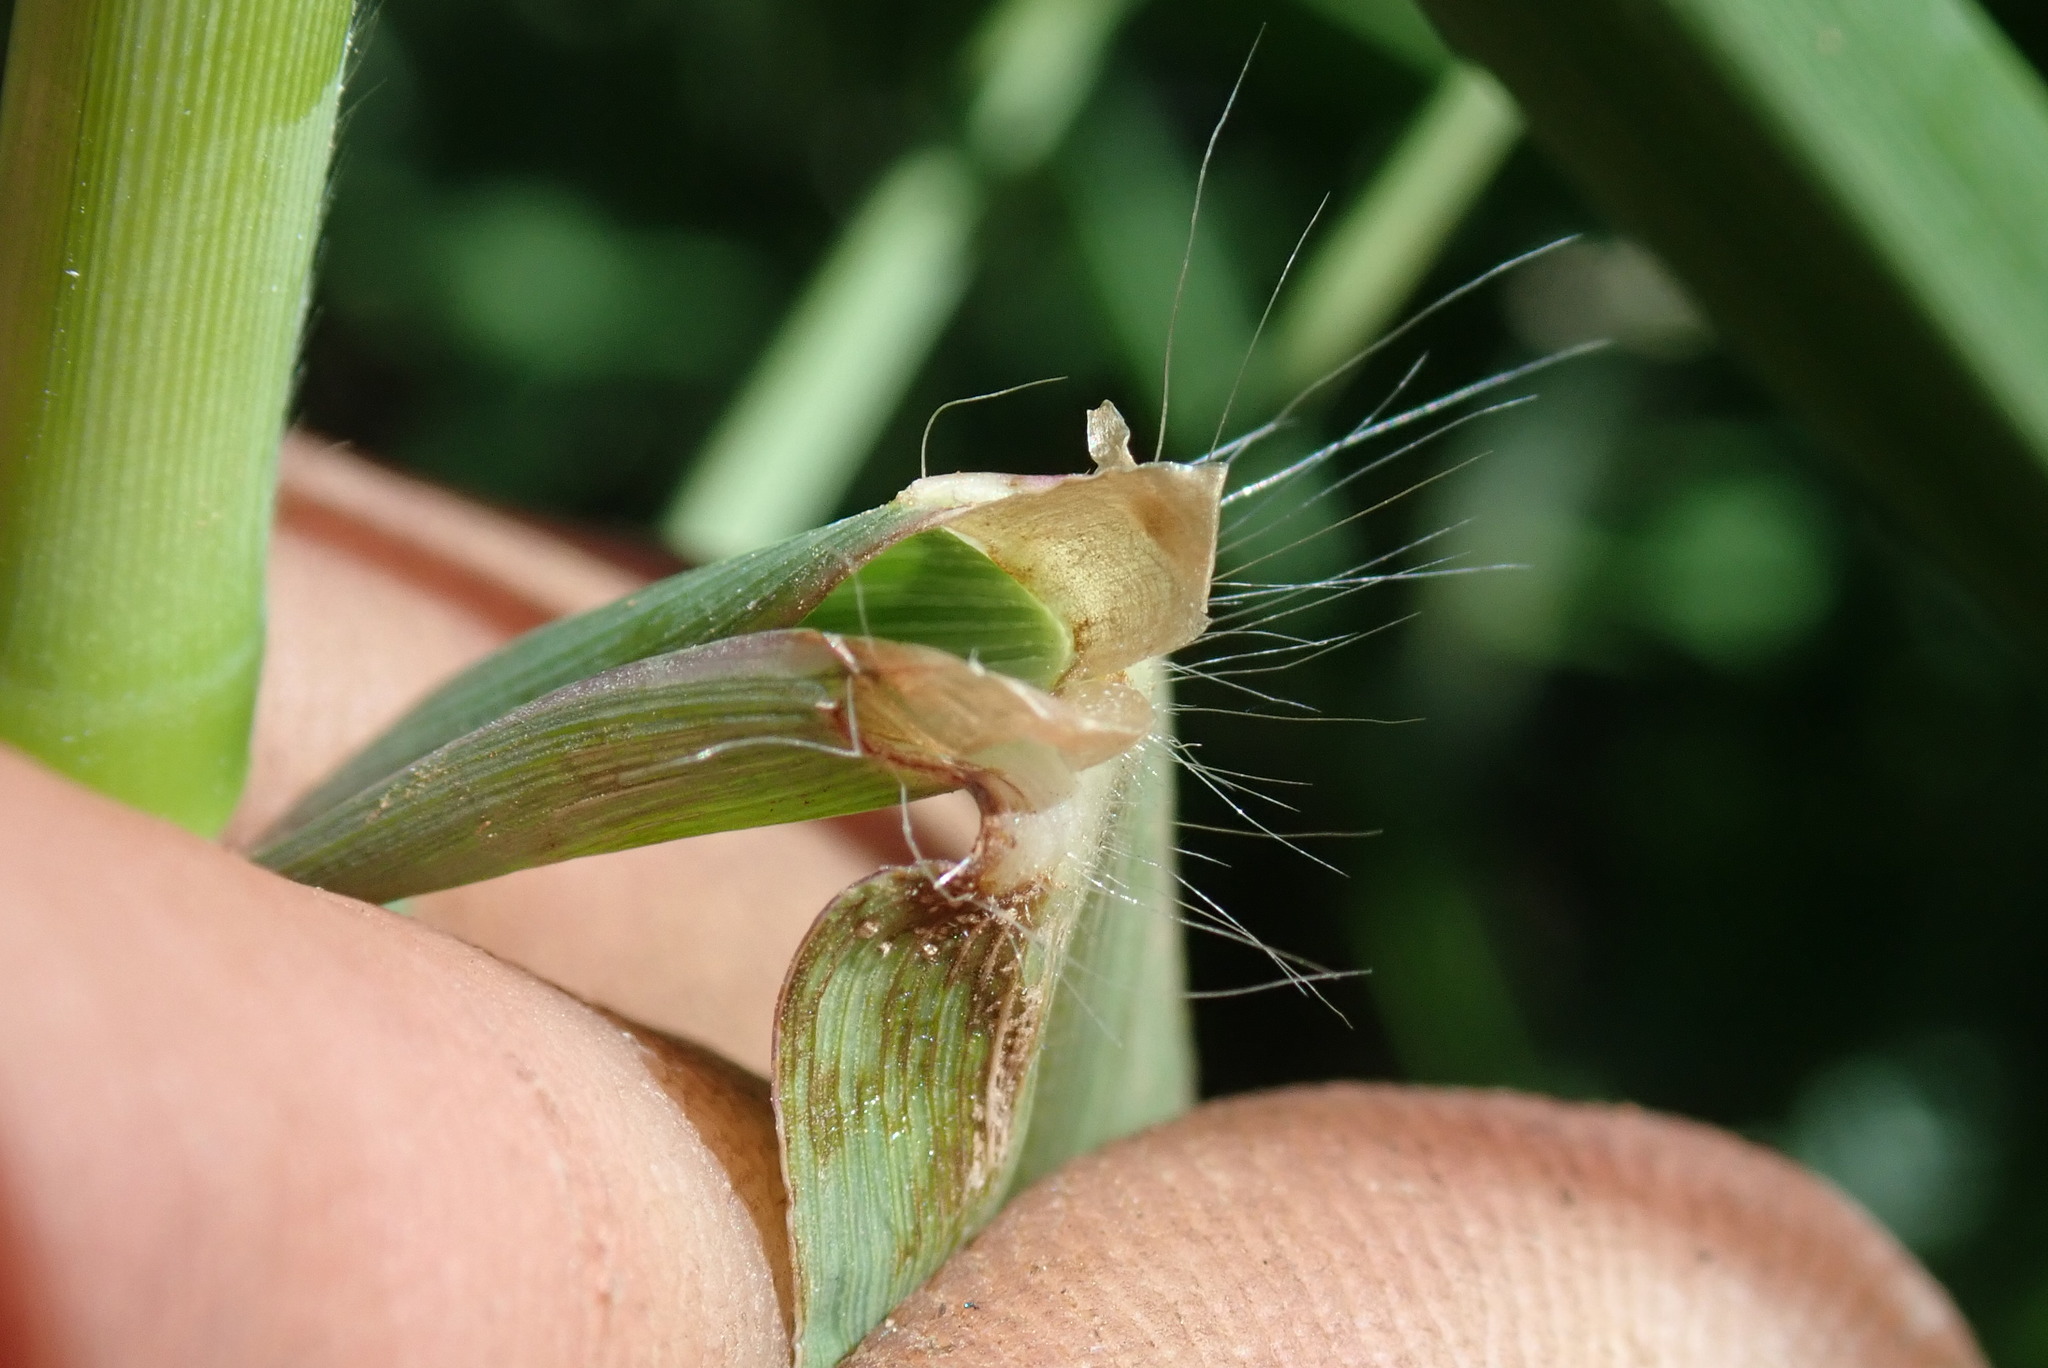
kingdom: Plantae
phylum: Tracheophyta
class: Liliopsida
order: Poales
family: Poaceae
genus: Paspalum
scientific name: Paspalum dilatatum
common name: Dallisgrass
